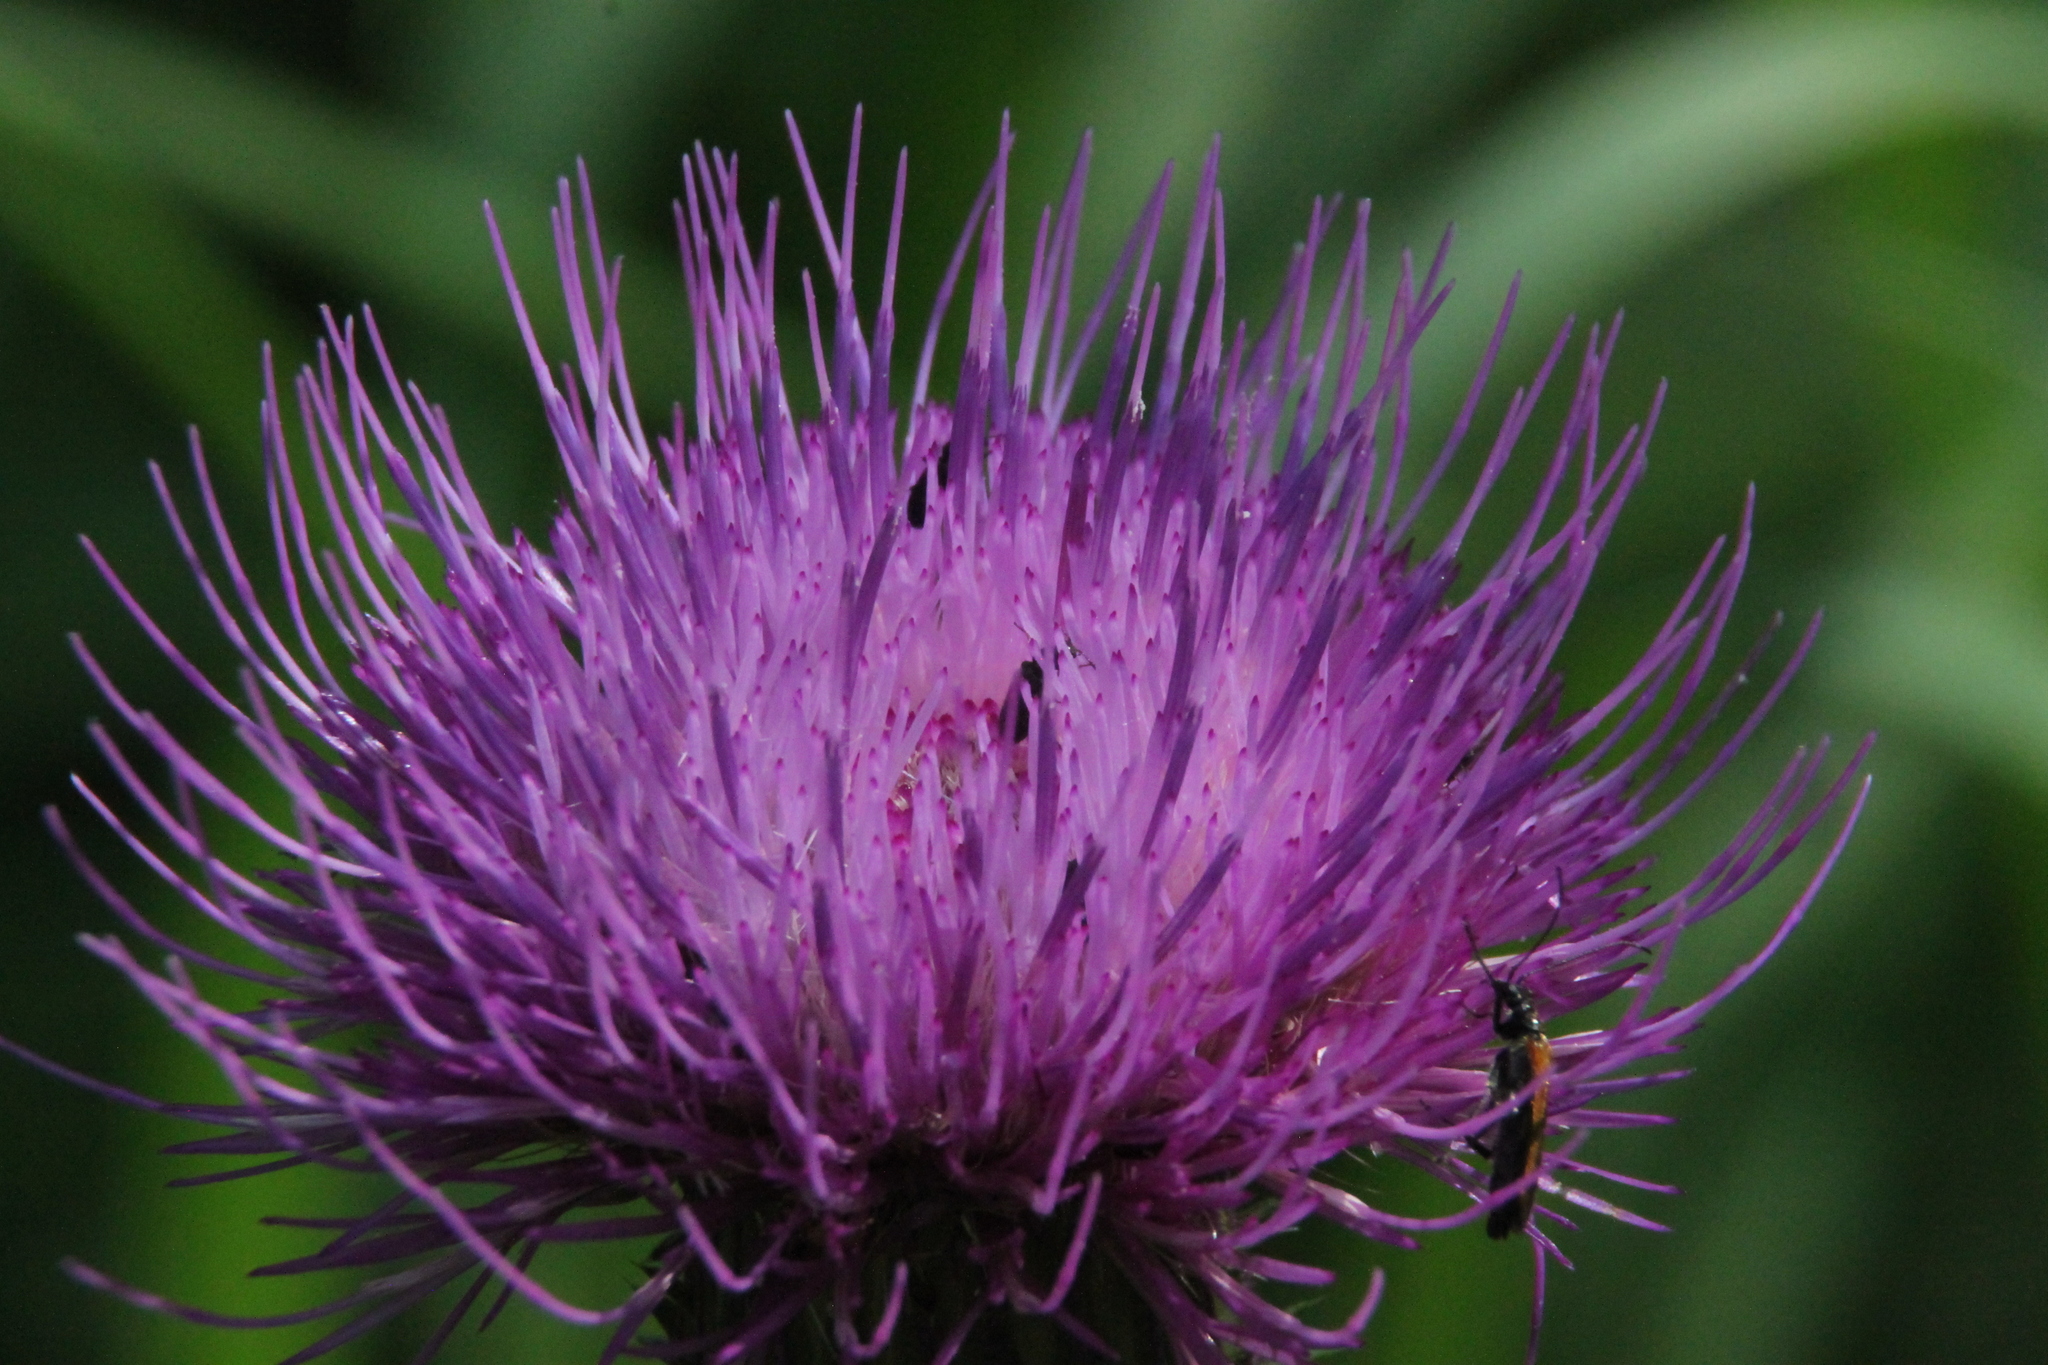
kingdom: Plantae
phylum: Tracheophyta
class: Magnoliopsida
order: Asterales
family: Asteraceae
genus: Cirsium
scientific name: Cirsium heterophyllum
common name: Melancholy thistle
